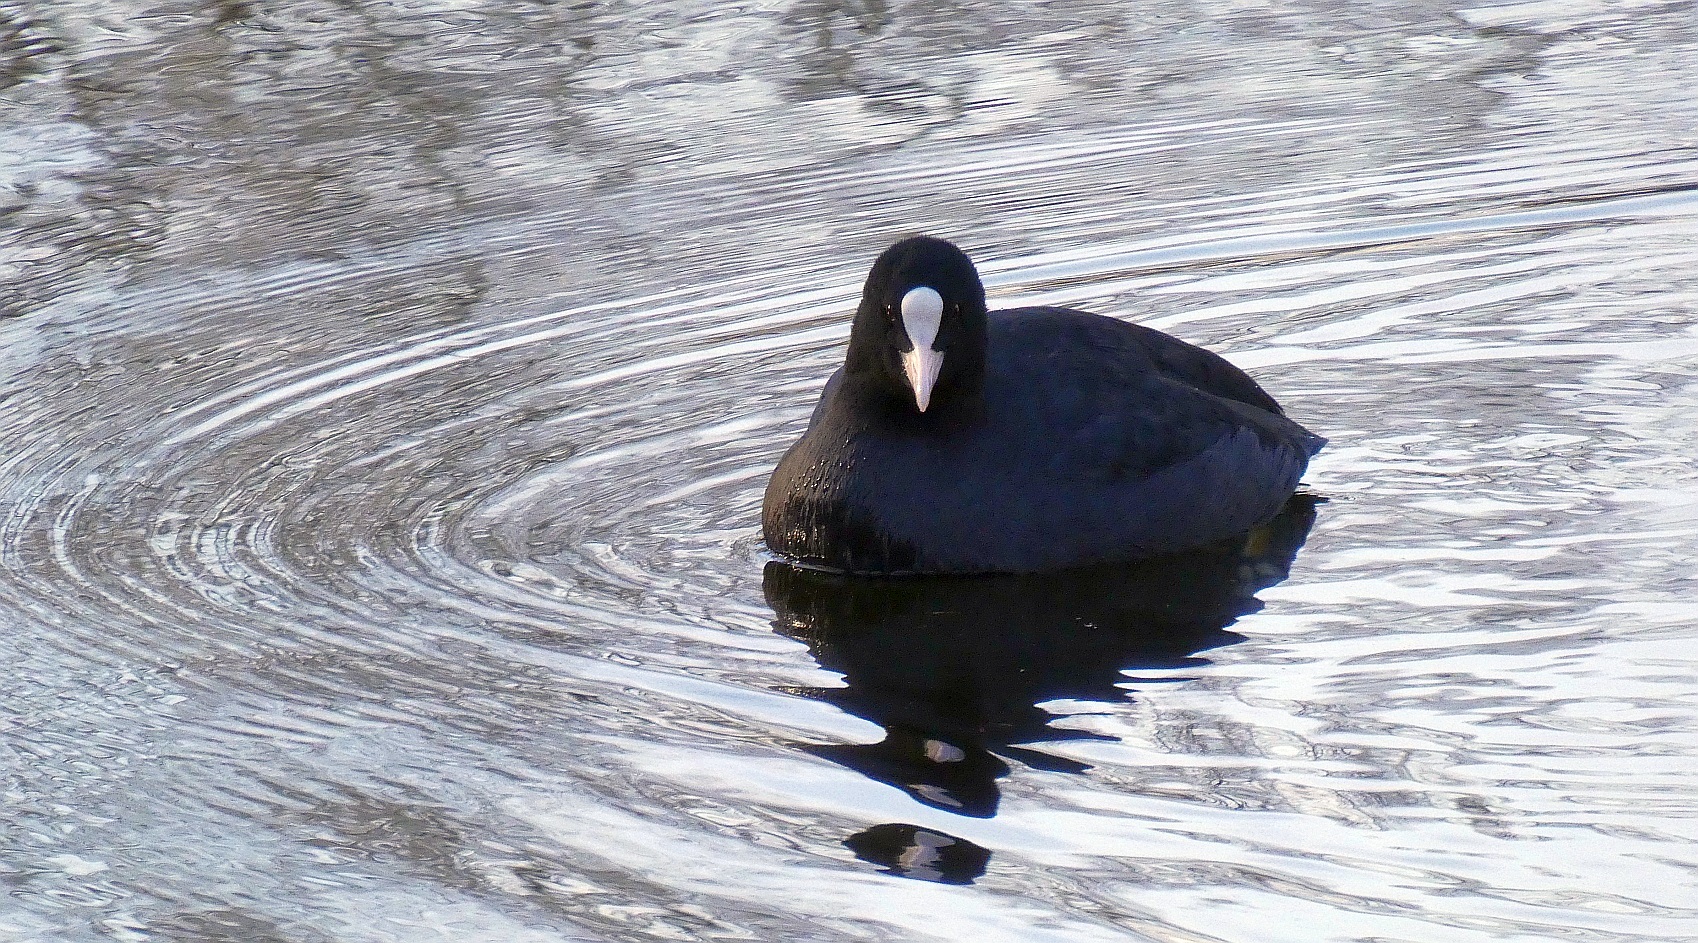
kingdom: Animalia
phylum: Chordata
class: Aves
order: Gruiformes
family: Rallidae
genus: Fulica
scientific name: Fulica atra
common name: Eurasian coot
